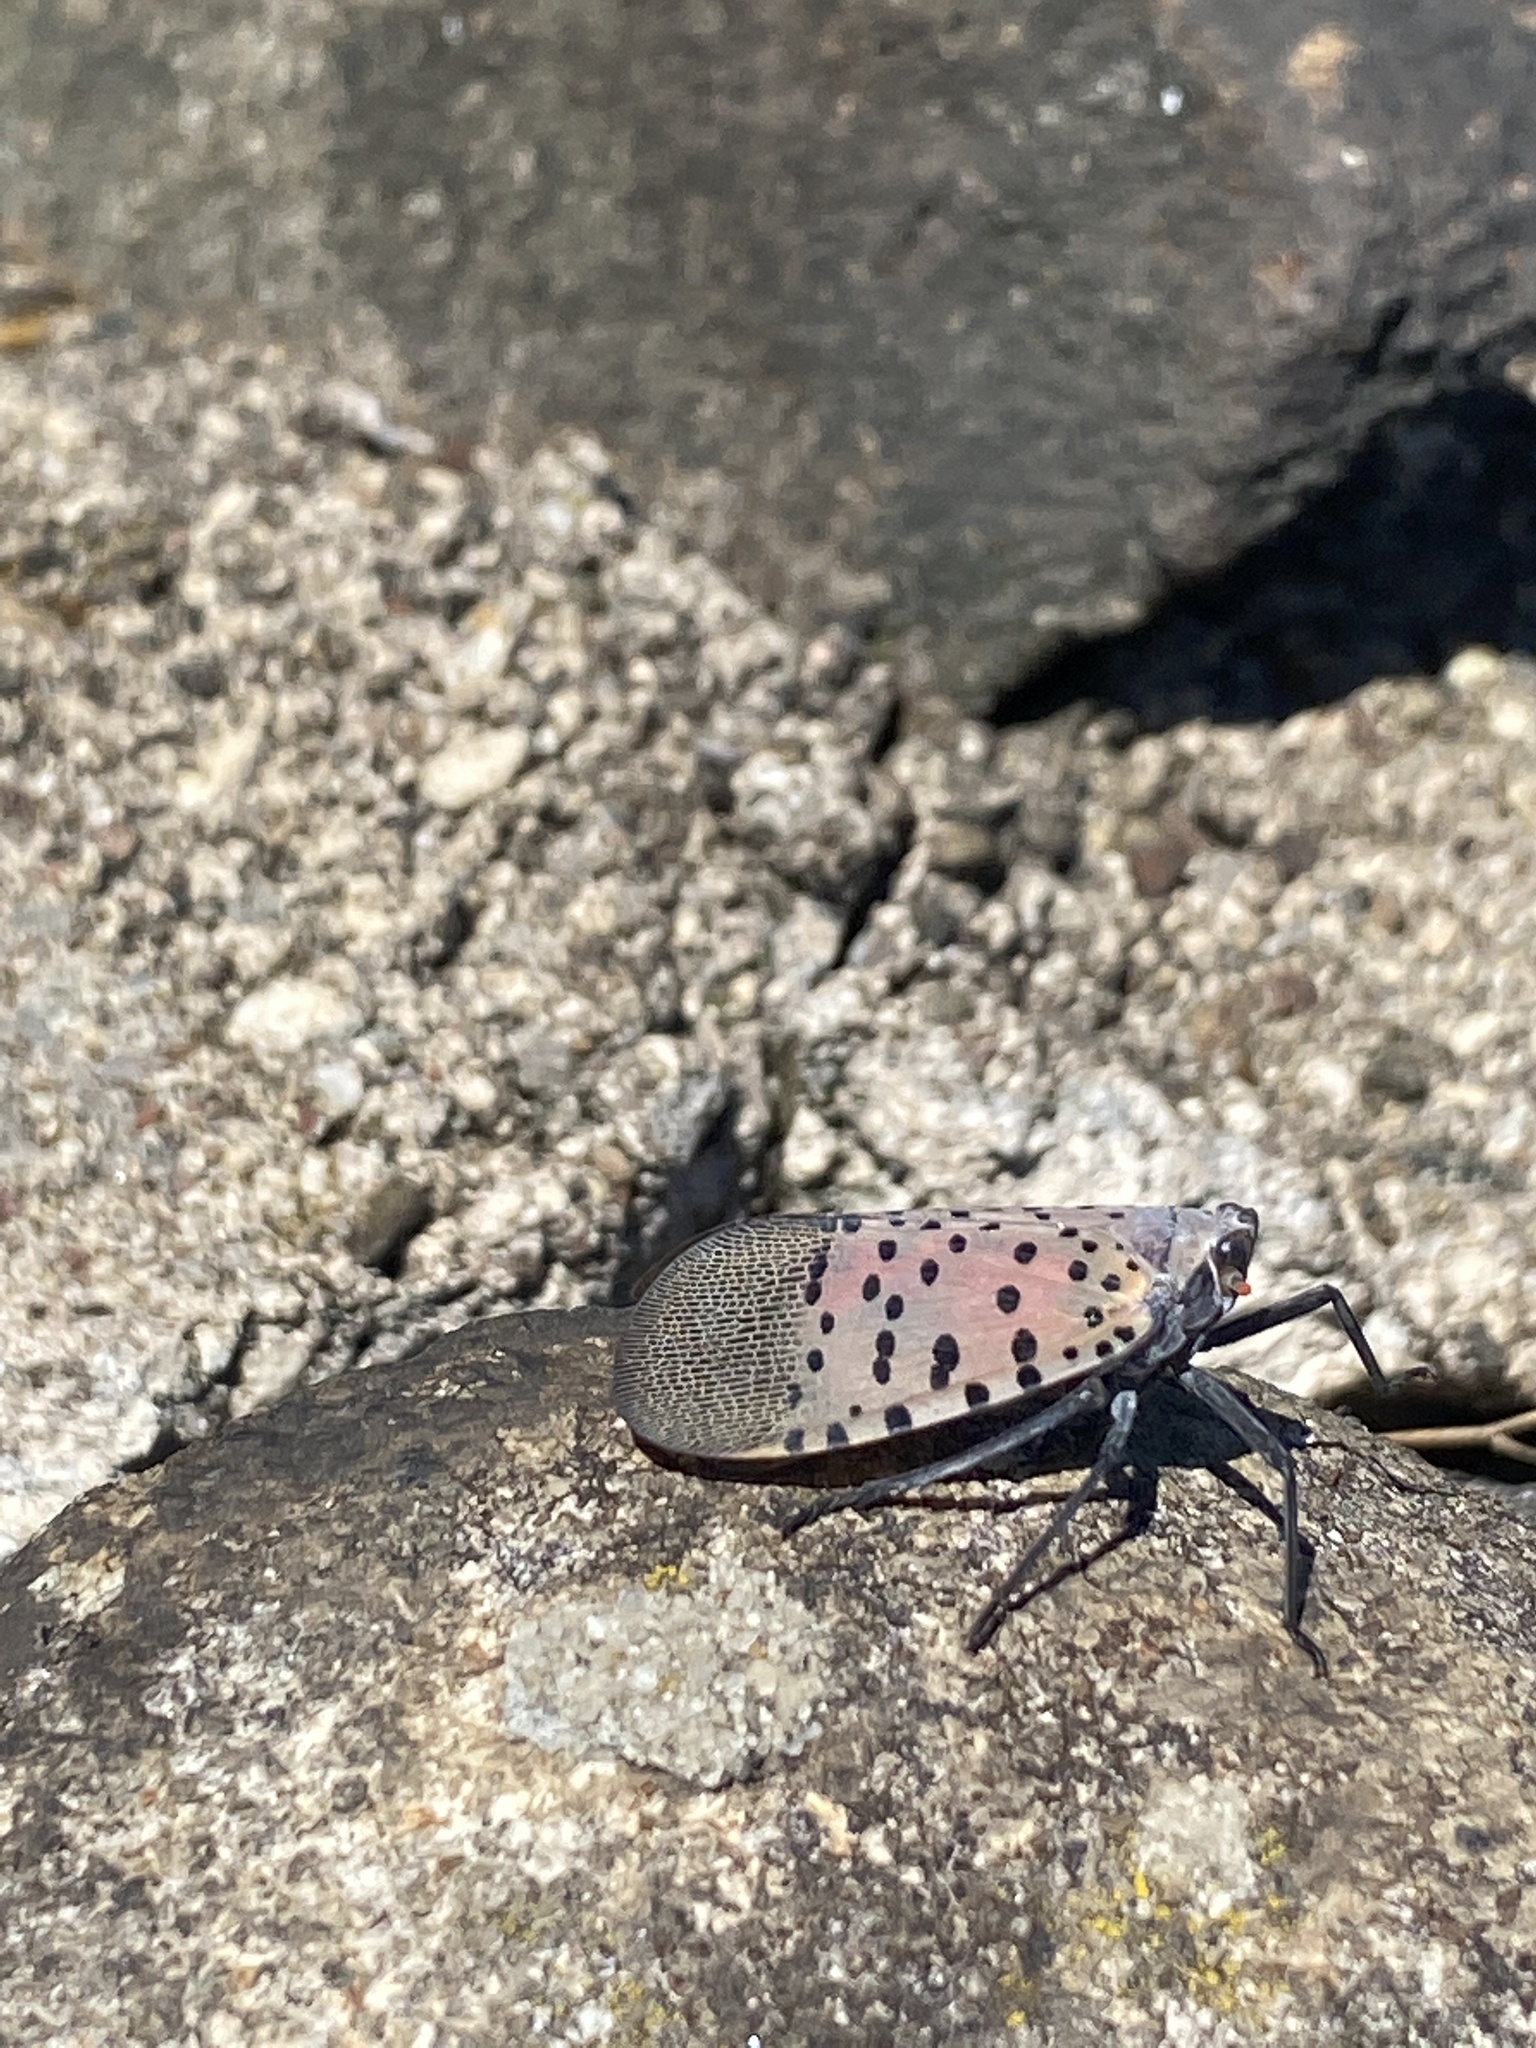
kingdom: Animalia
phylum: Arthropoda
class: Insecta
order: Hemiptera
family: Fulgoridae
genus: Lycorma
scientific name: Lycorma delicatula
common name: Spotted lanternfly
